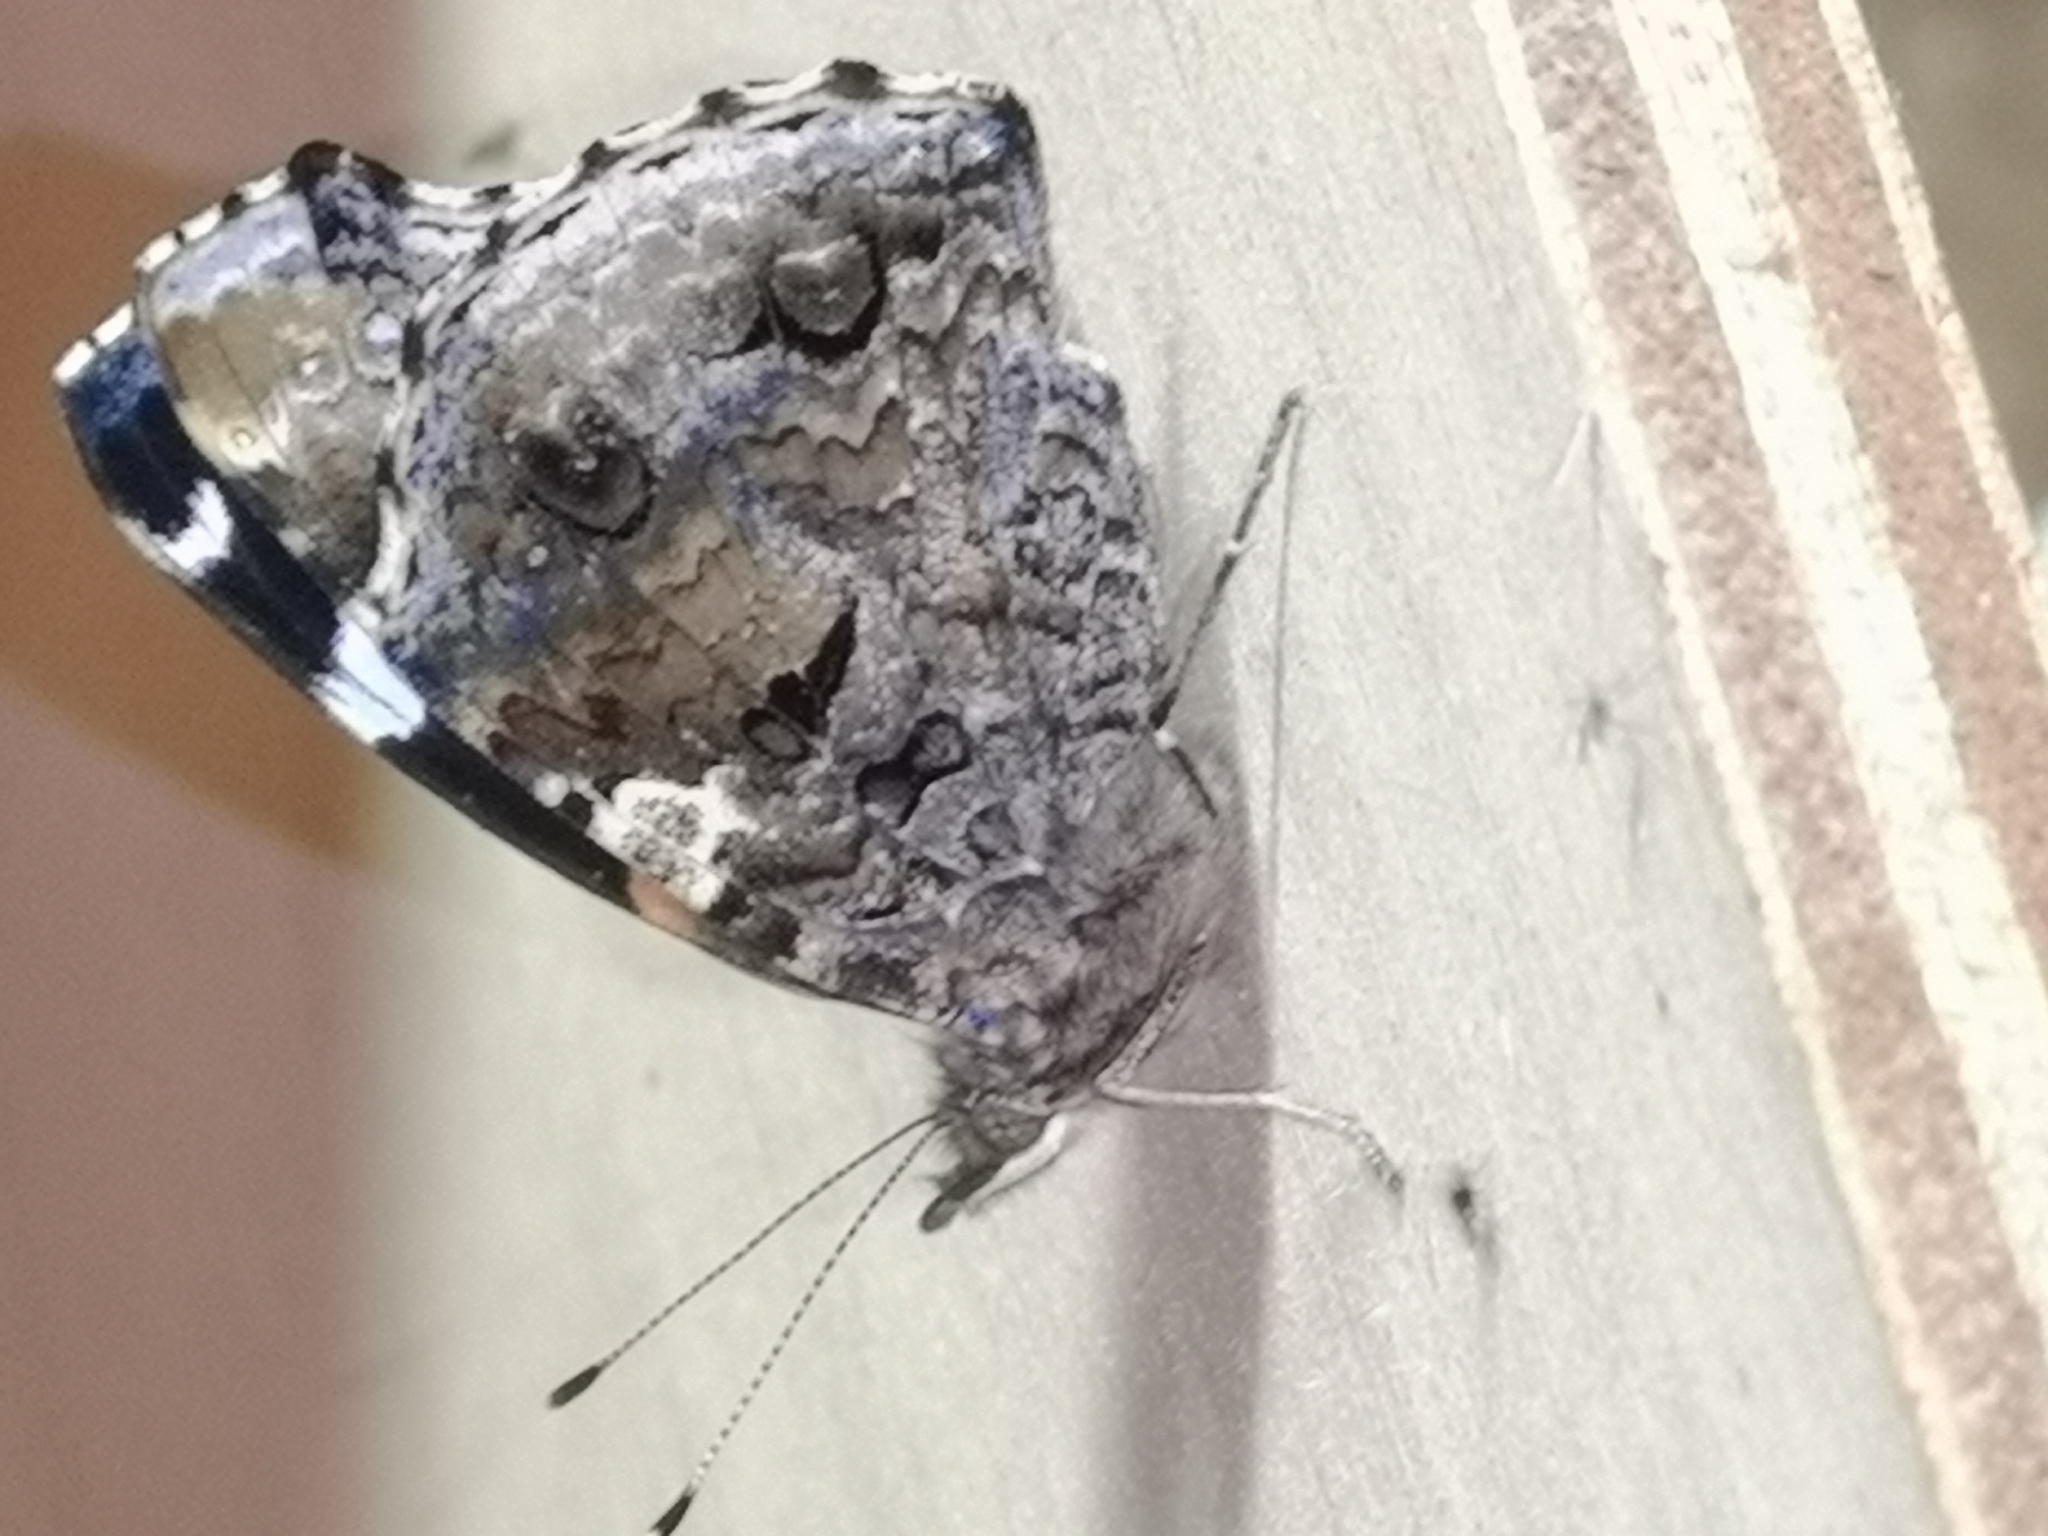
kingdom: Animalia
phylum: Arthropoda
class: Insecta
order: Lepidoptera
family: Nymphalidae
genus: Vanessa
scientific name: Vanessa atalanta
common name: Red admiral
